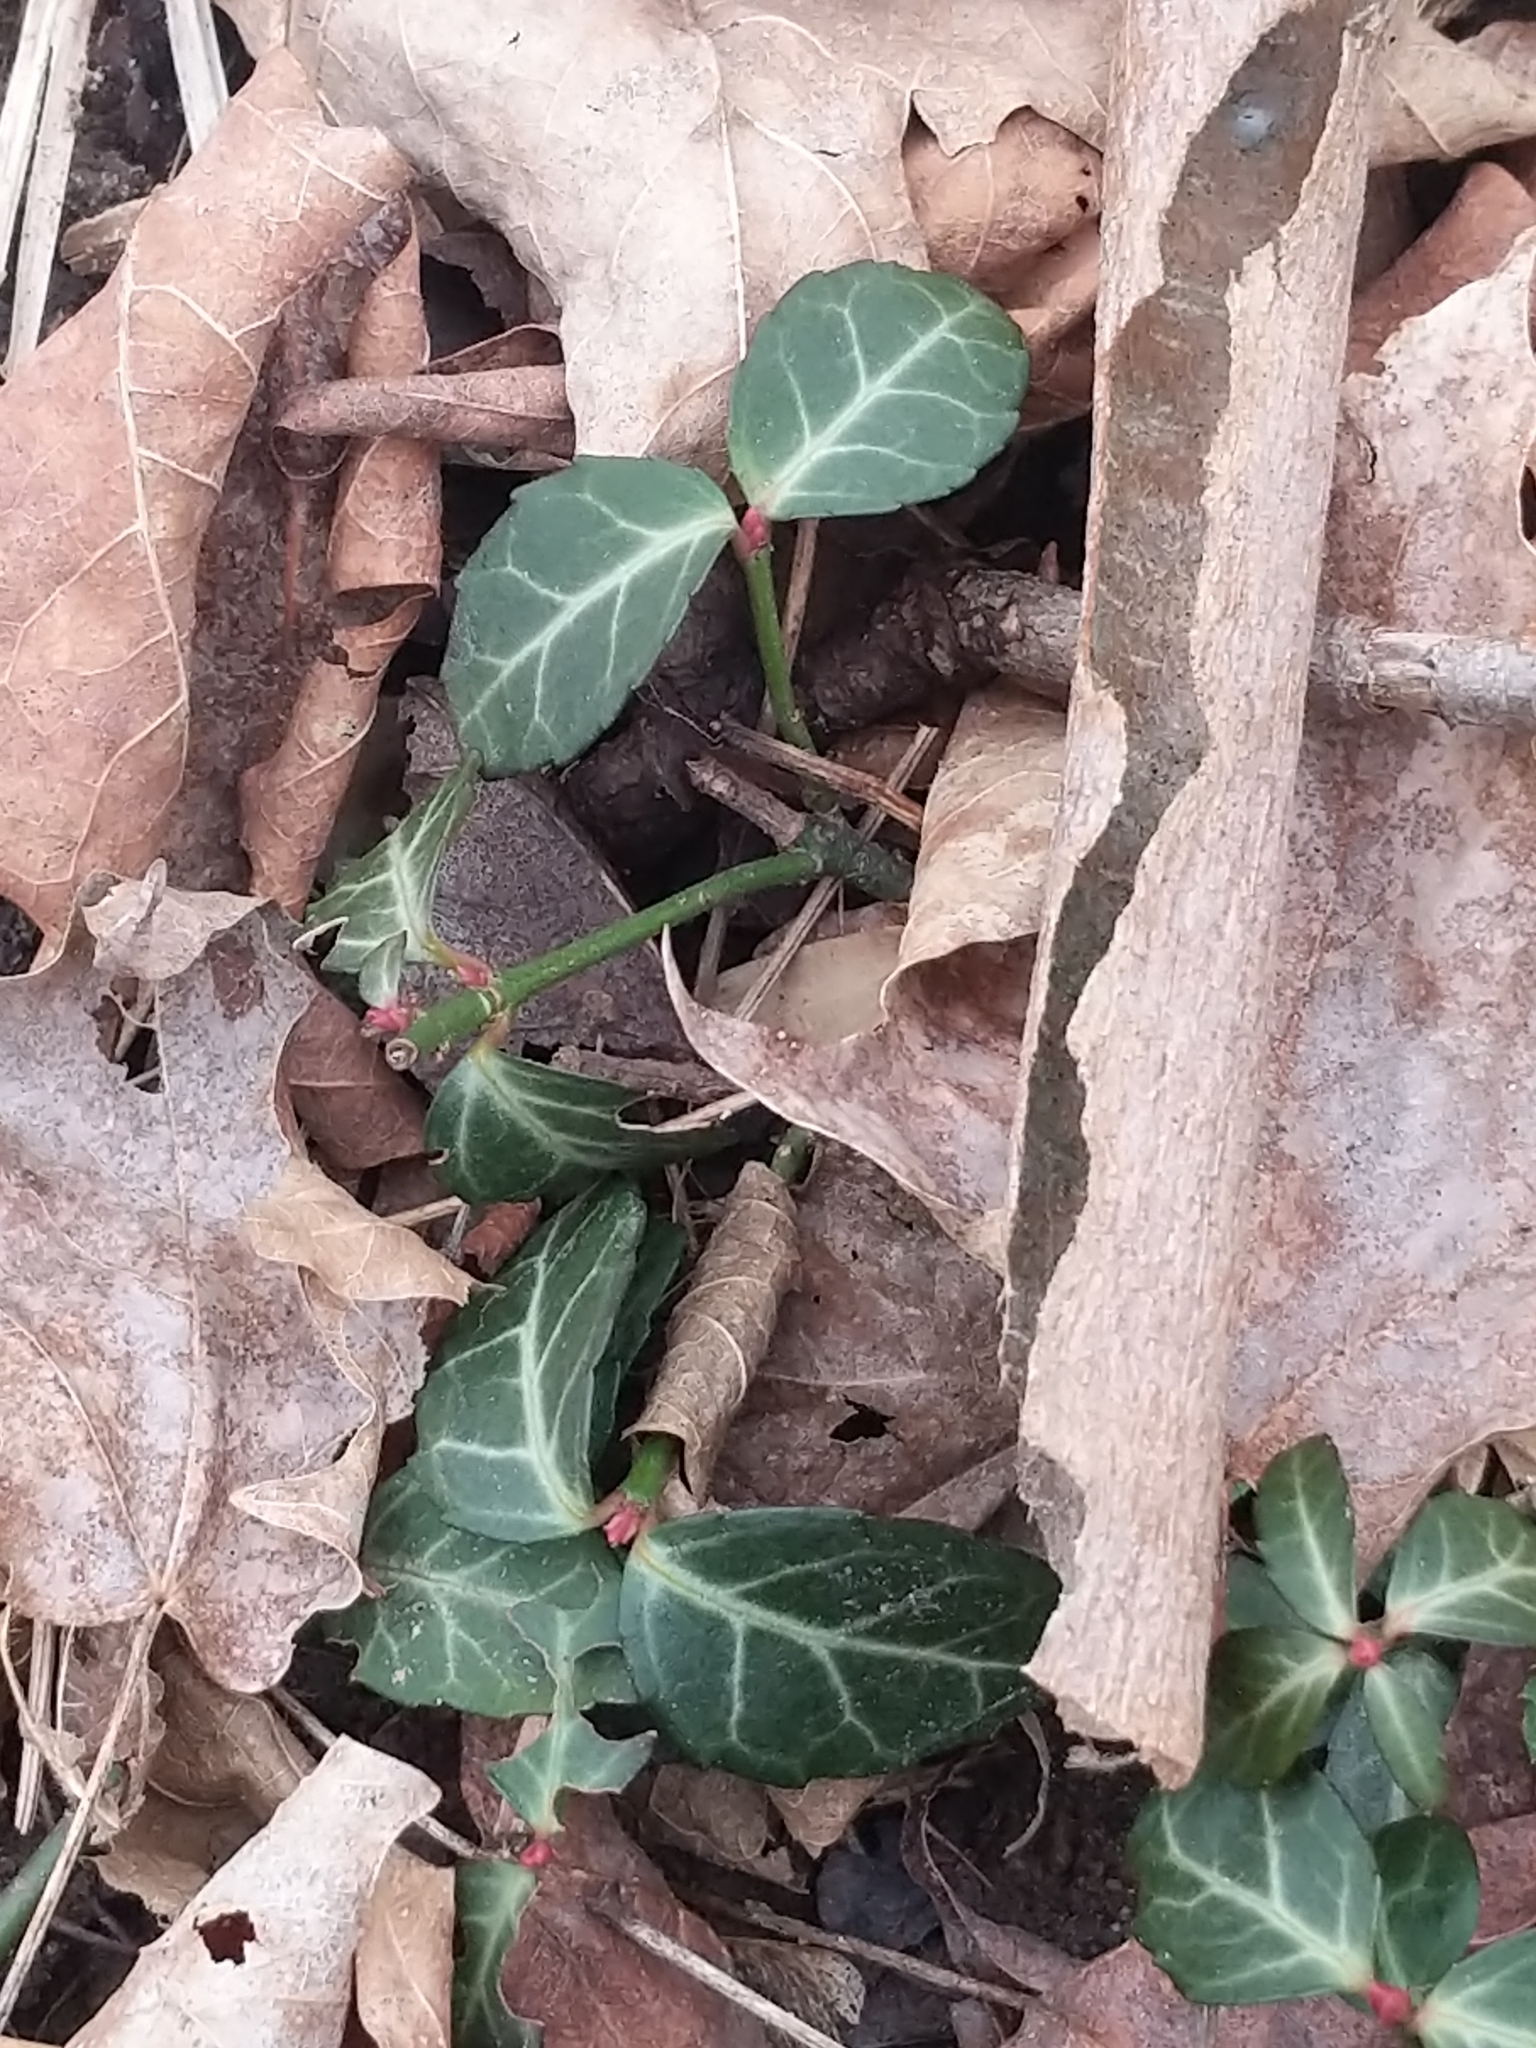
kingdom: Plantae
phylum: Tracheophyta
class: Magnoliopsida
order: Celastrales
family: Celastraceae
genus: Euonymus
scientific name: Euonymus fortunei
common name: Climbing euonymus
